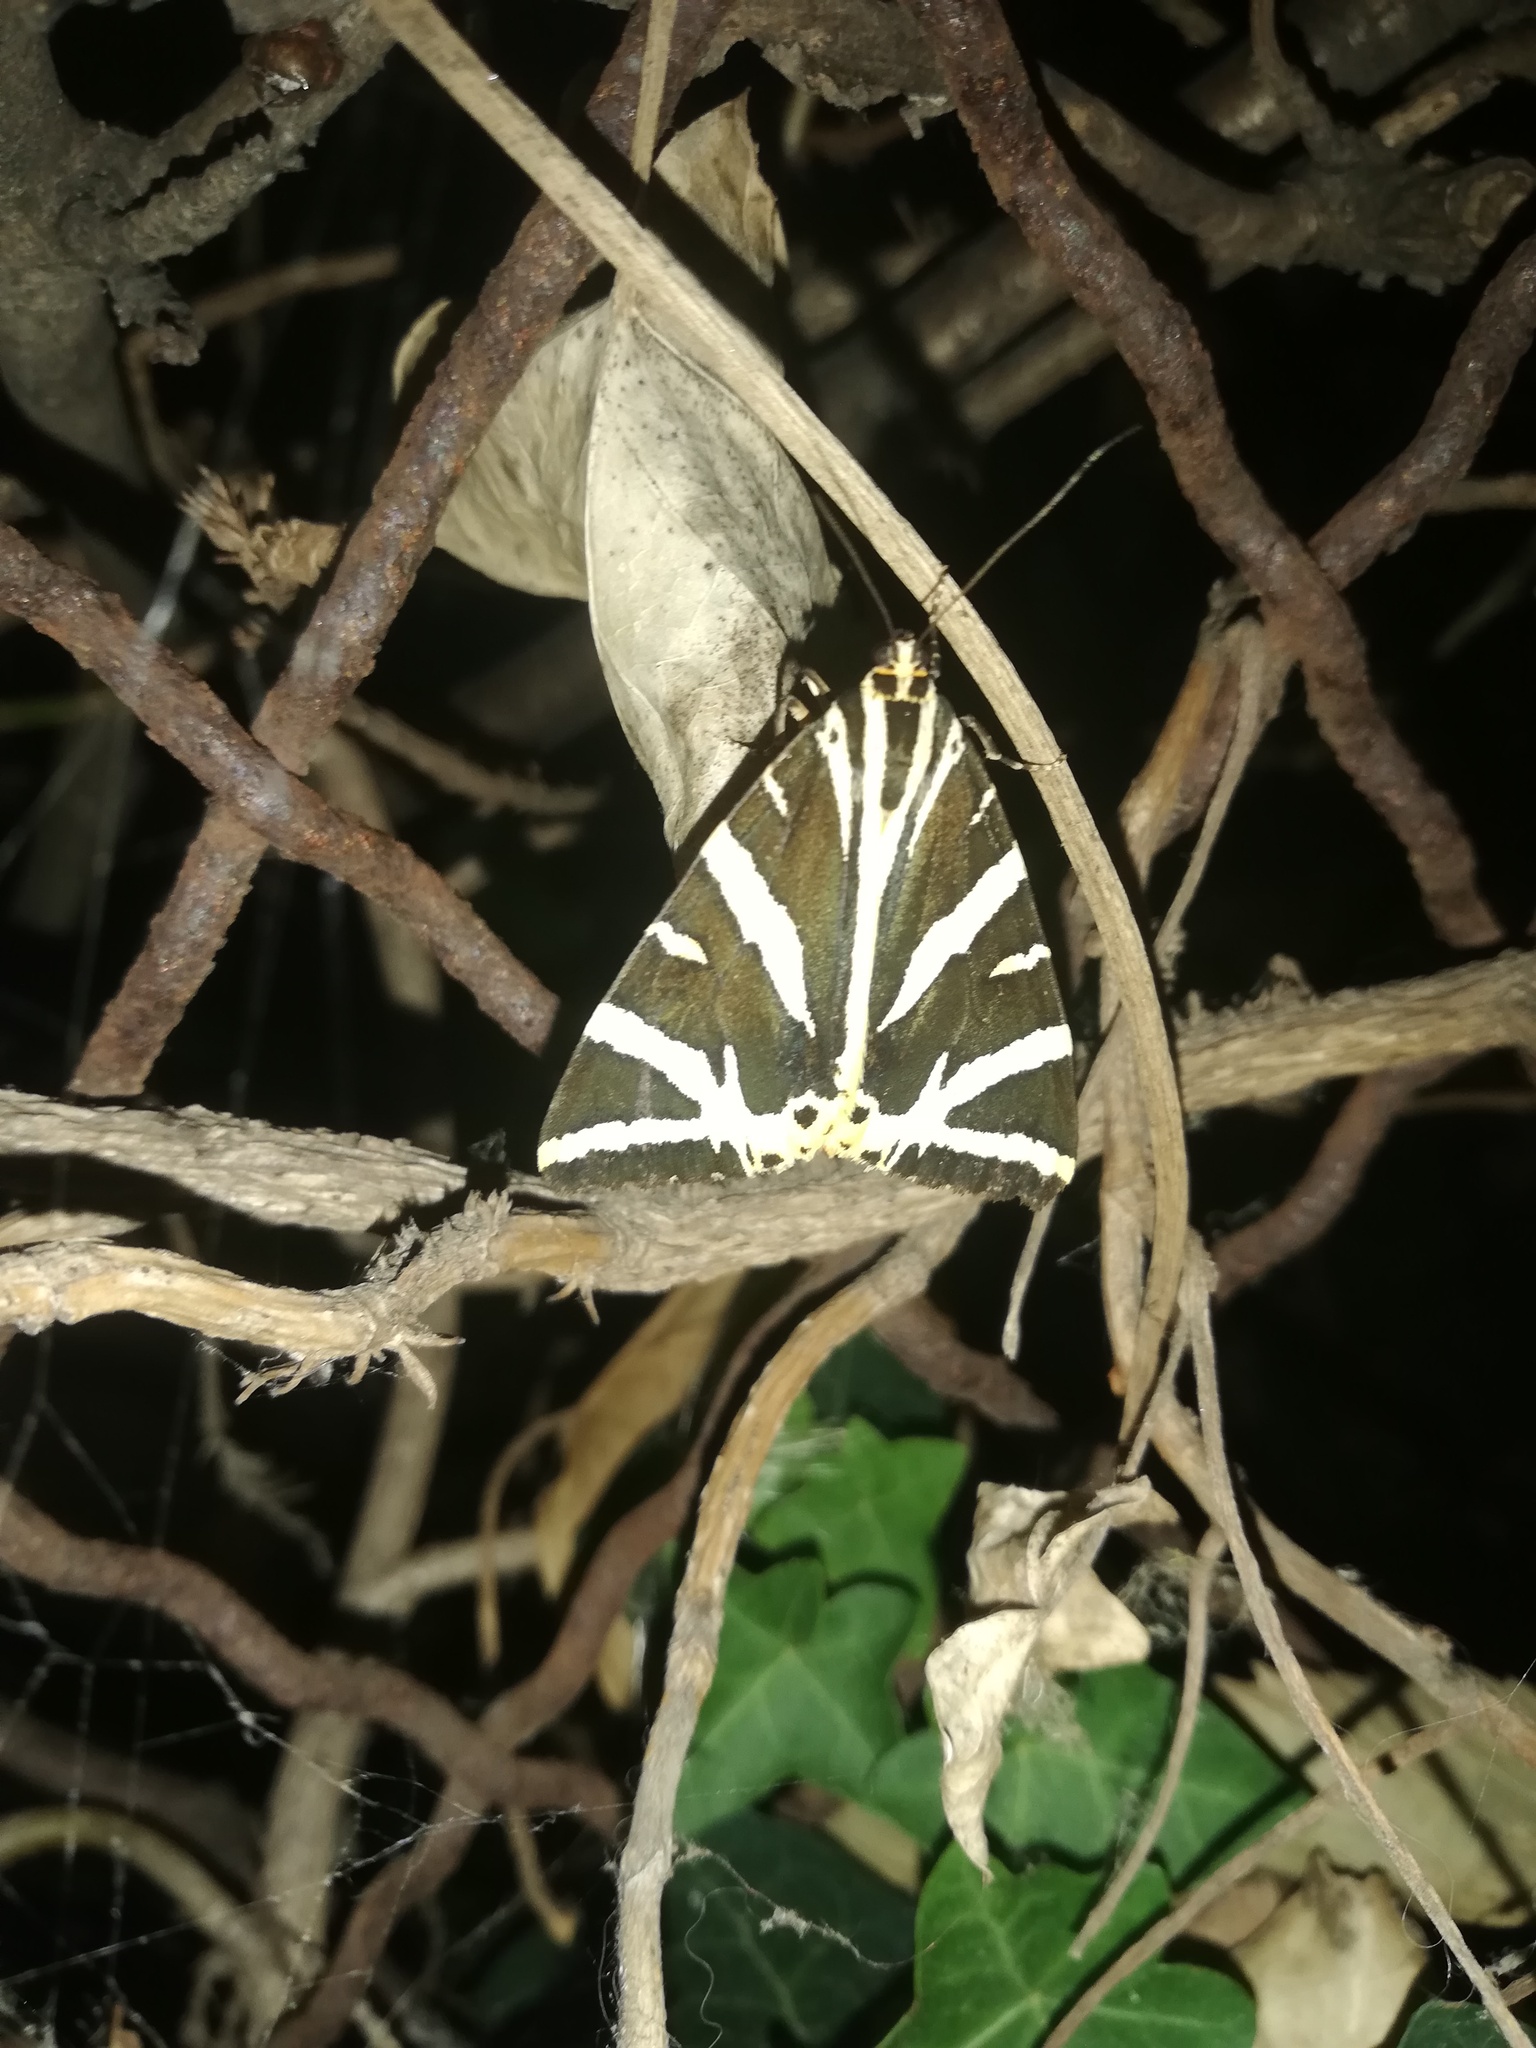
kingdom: Animalia
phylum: Arthropoda
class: Insecta
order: Lepidoptera
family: Erebidae
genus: Euplagia
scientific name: Euplagia quadripunctaria
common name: Jersey tiger
